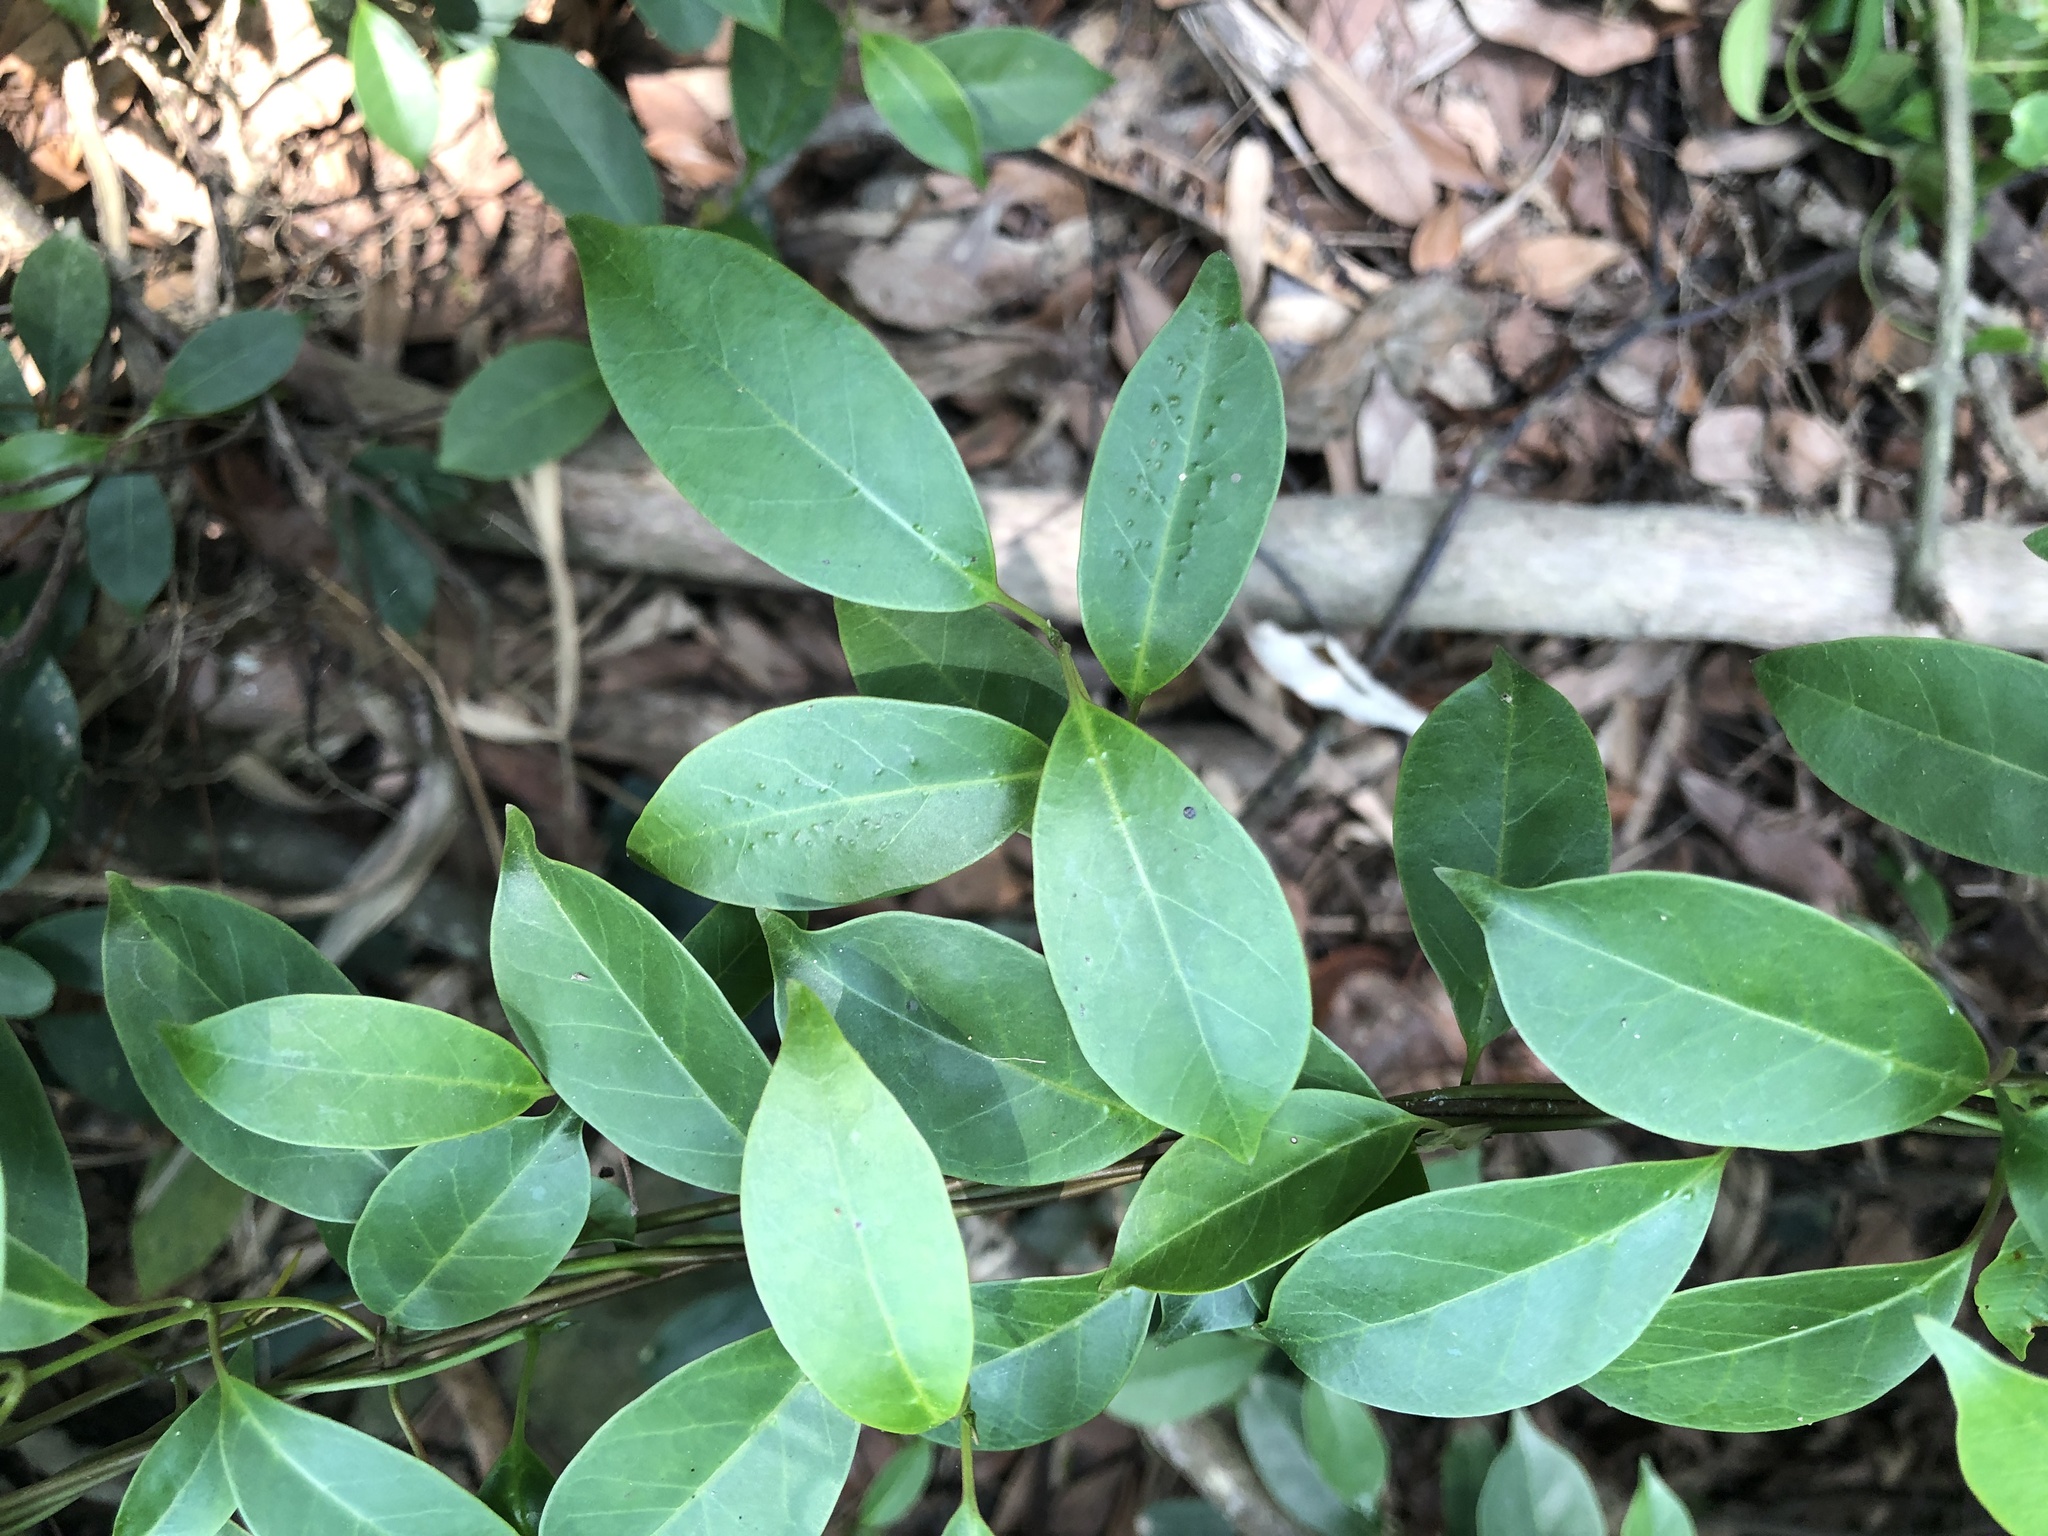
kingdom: Plantae
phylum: Tracheophyta
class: Magnoliopsida
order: Gentianales
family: Apocynaceae
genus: Urceola
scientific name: Urceola rosea
